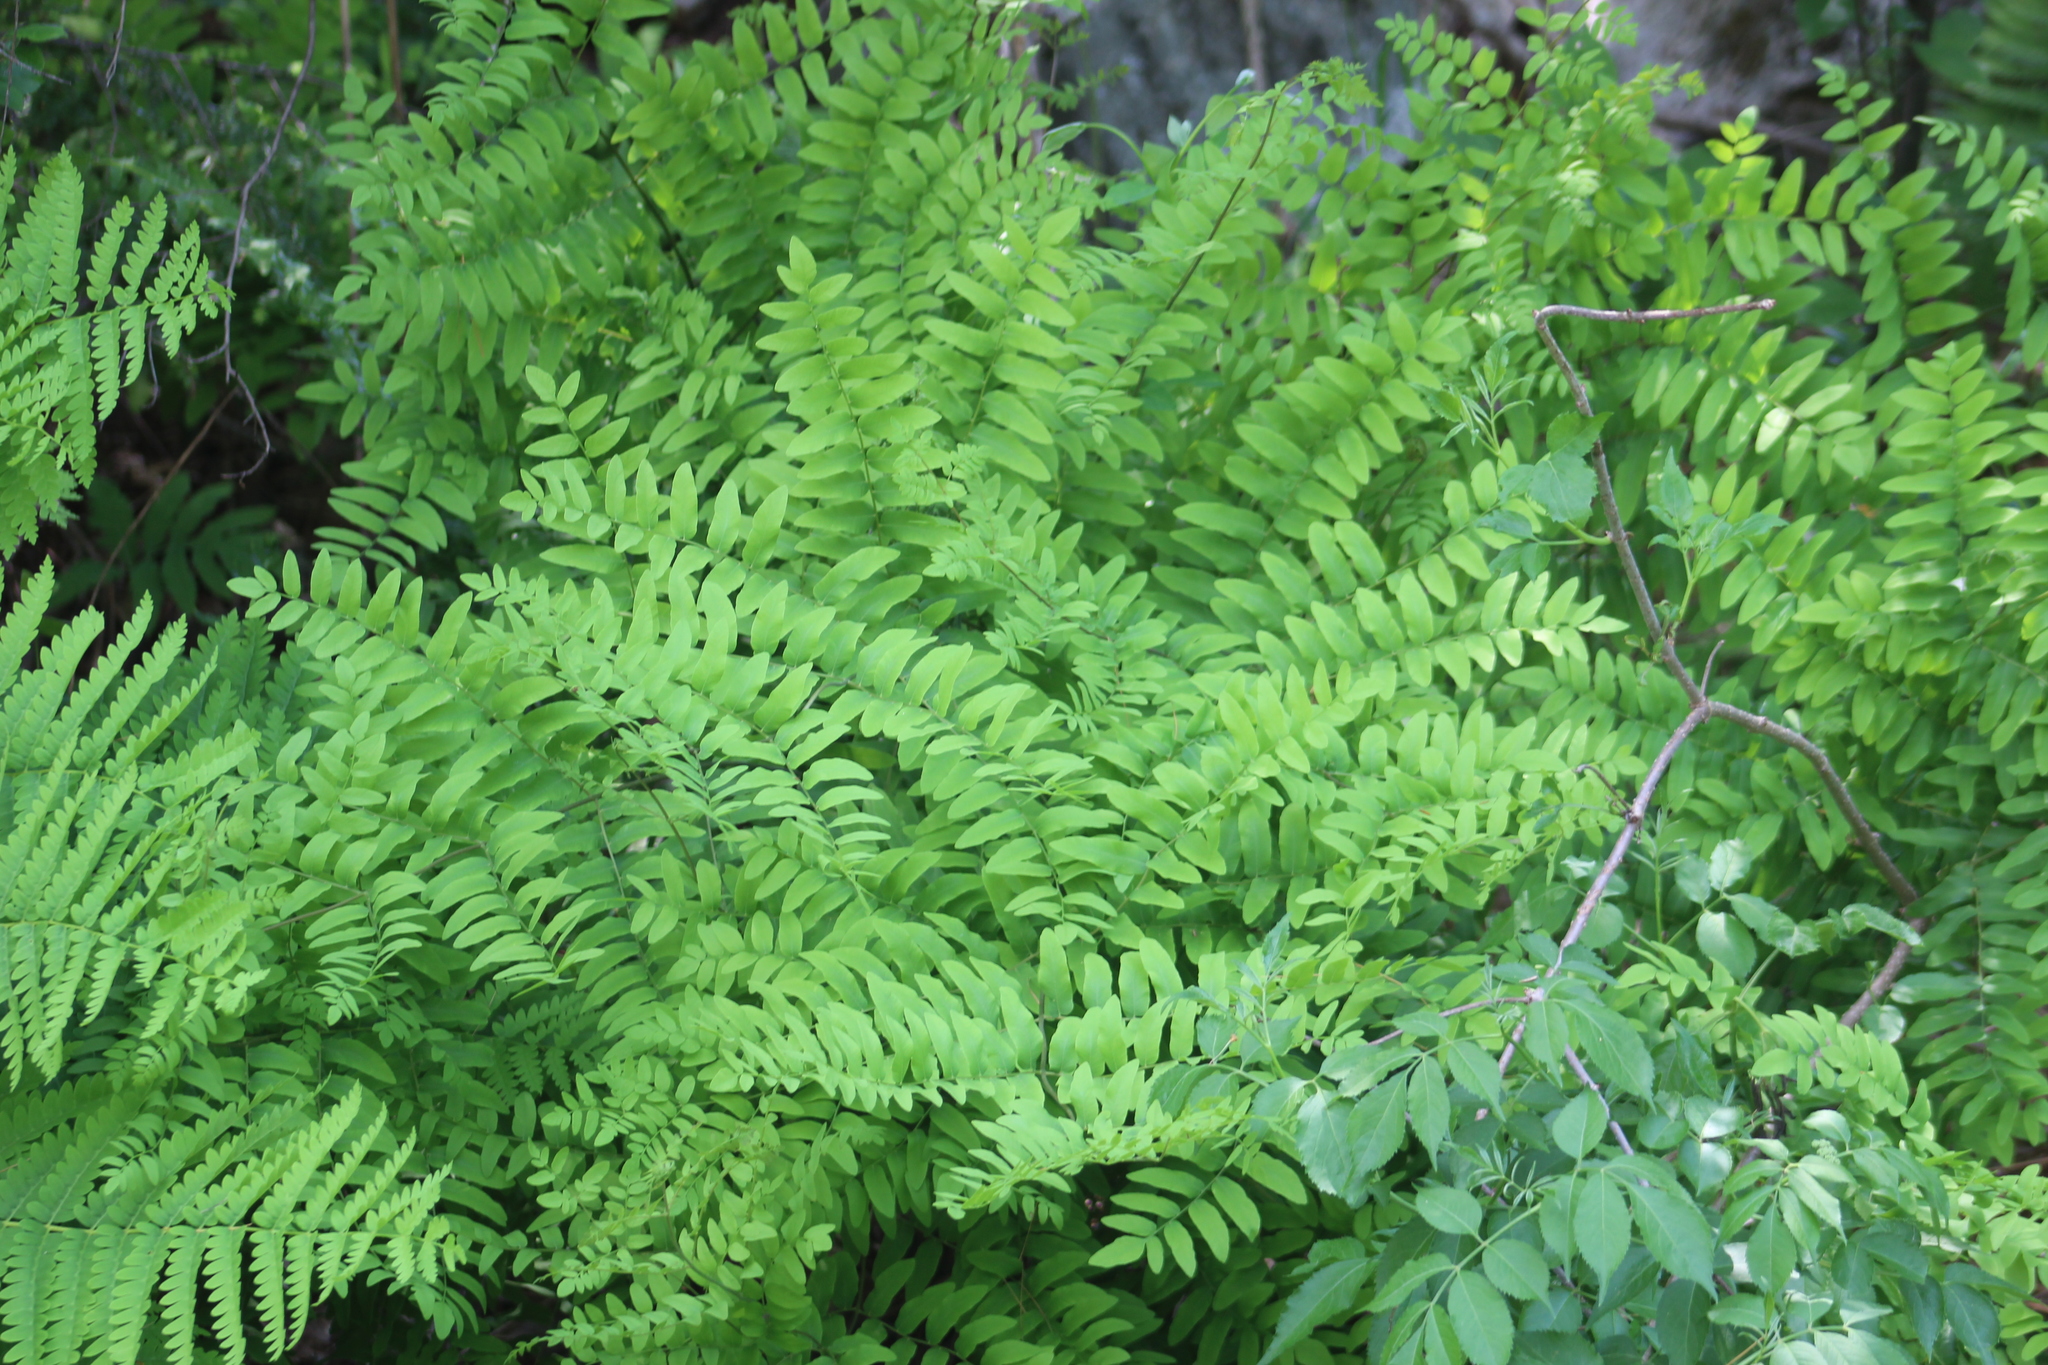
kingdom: Plantae
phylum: Tracheophyta
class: Polypodiopsida
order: Osmundales
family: Osmundaceae
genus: Osmunda
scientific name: Osmunda spectabilis
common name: American royal fern
